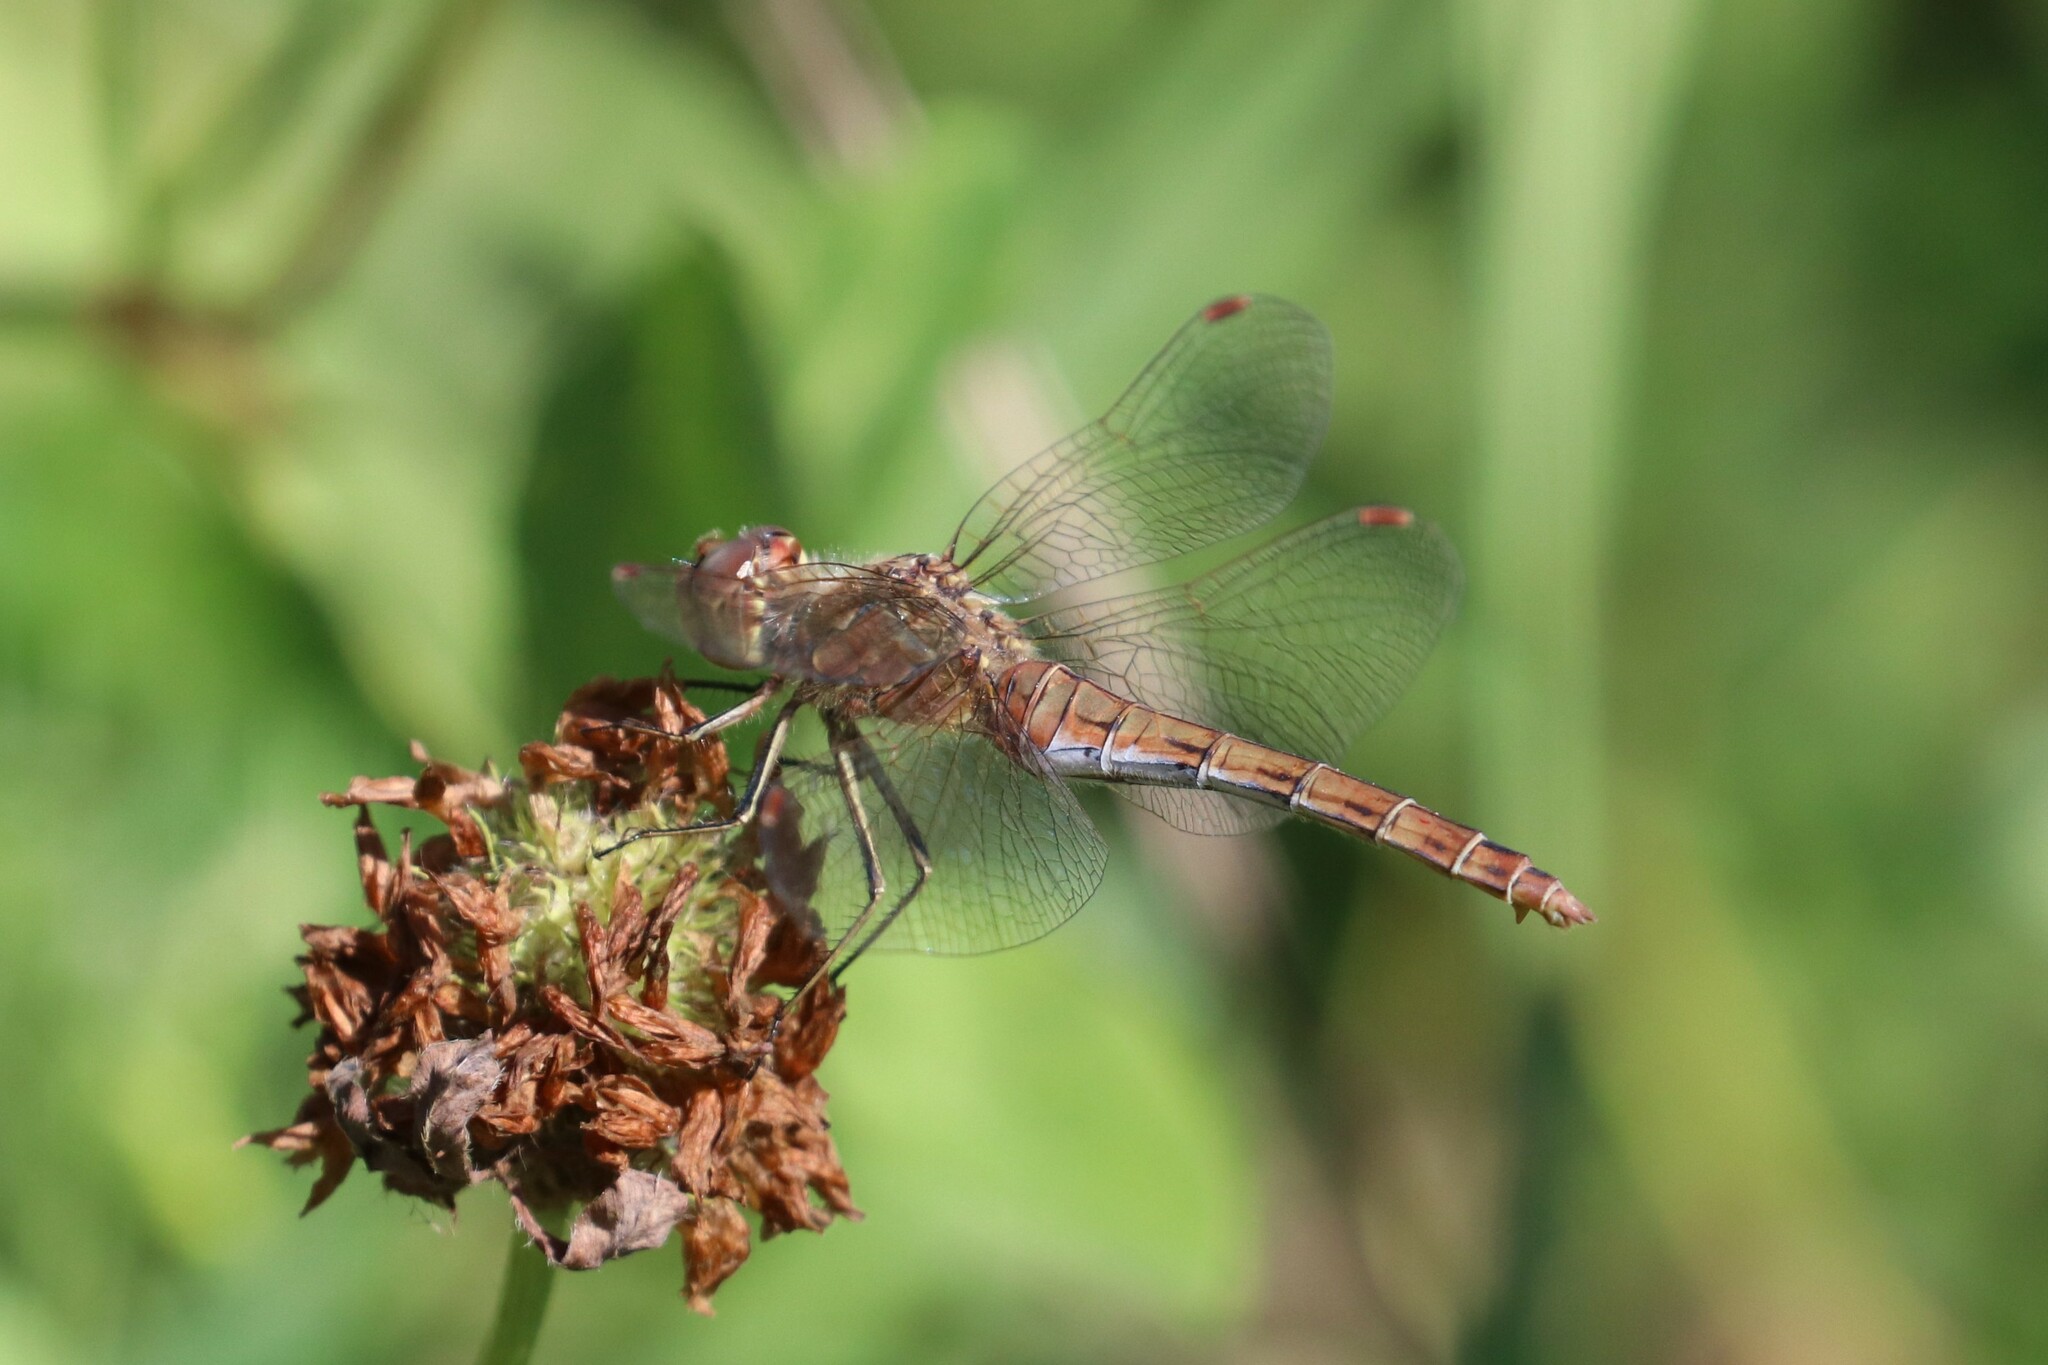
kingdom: Animalia
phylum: Arthropoda
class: Insecta
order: Odonata
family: Libellulidae
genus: Sympetrum
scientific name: Sympetrum vulgatum
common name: Vagrant darter
